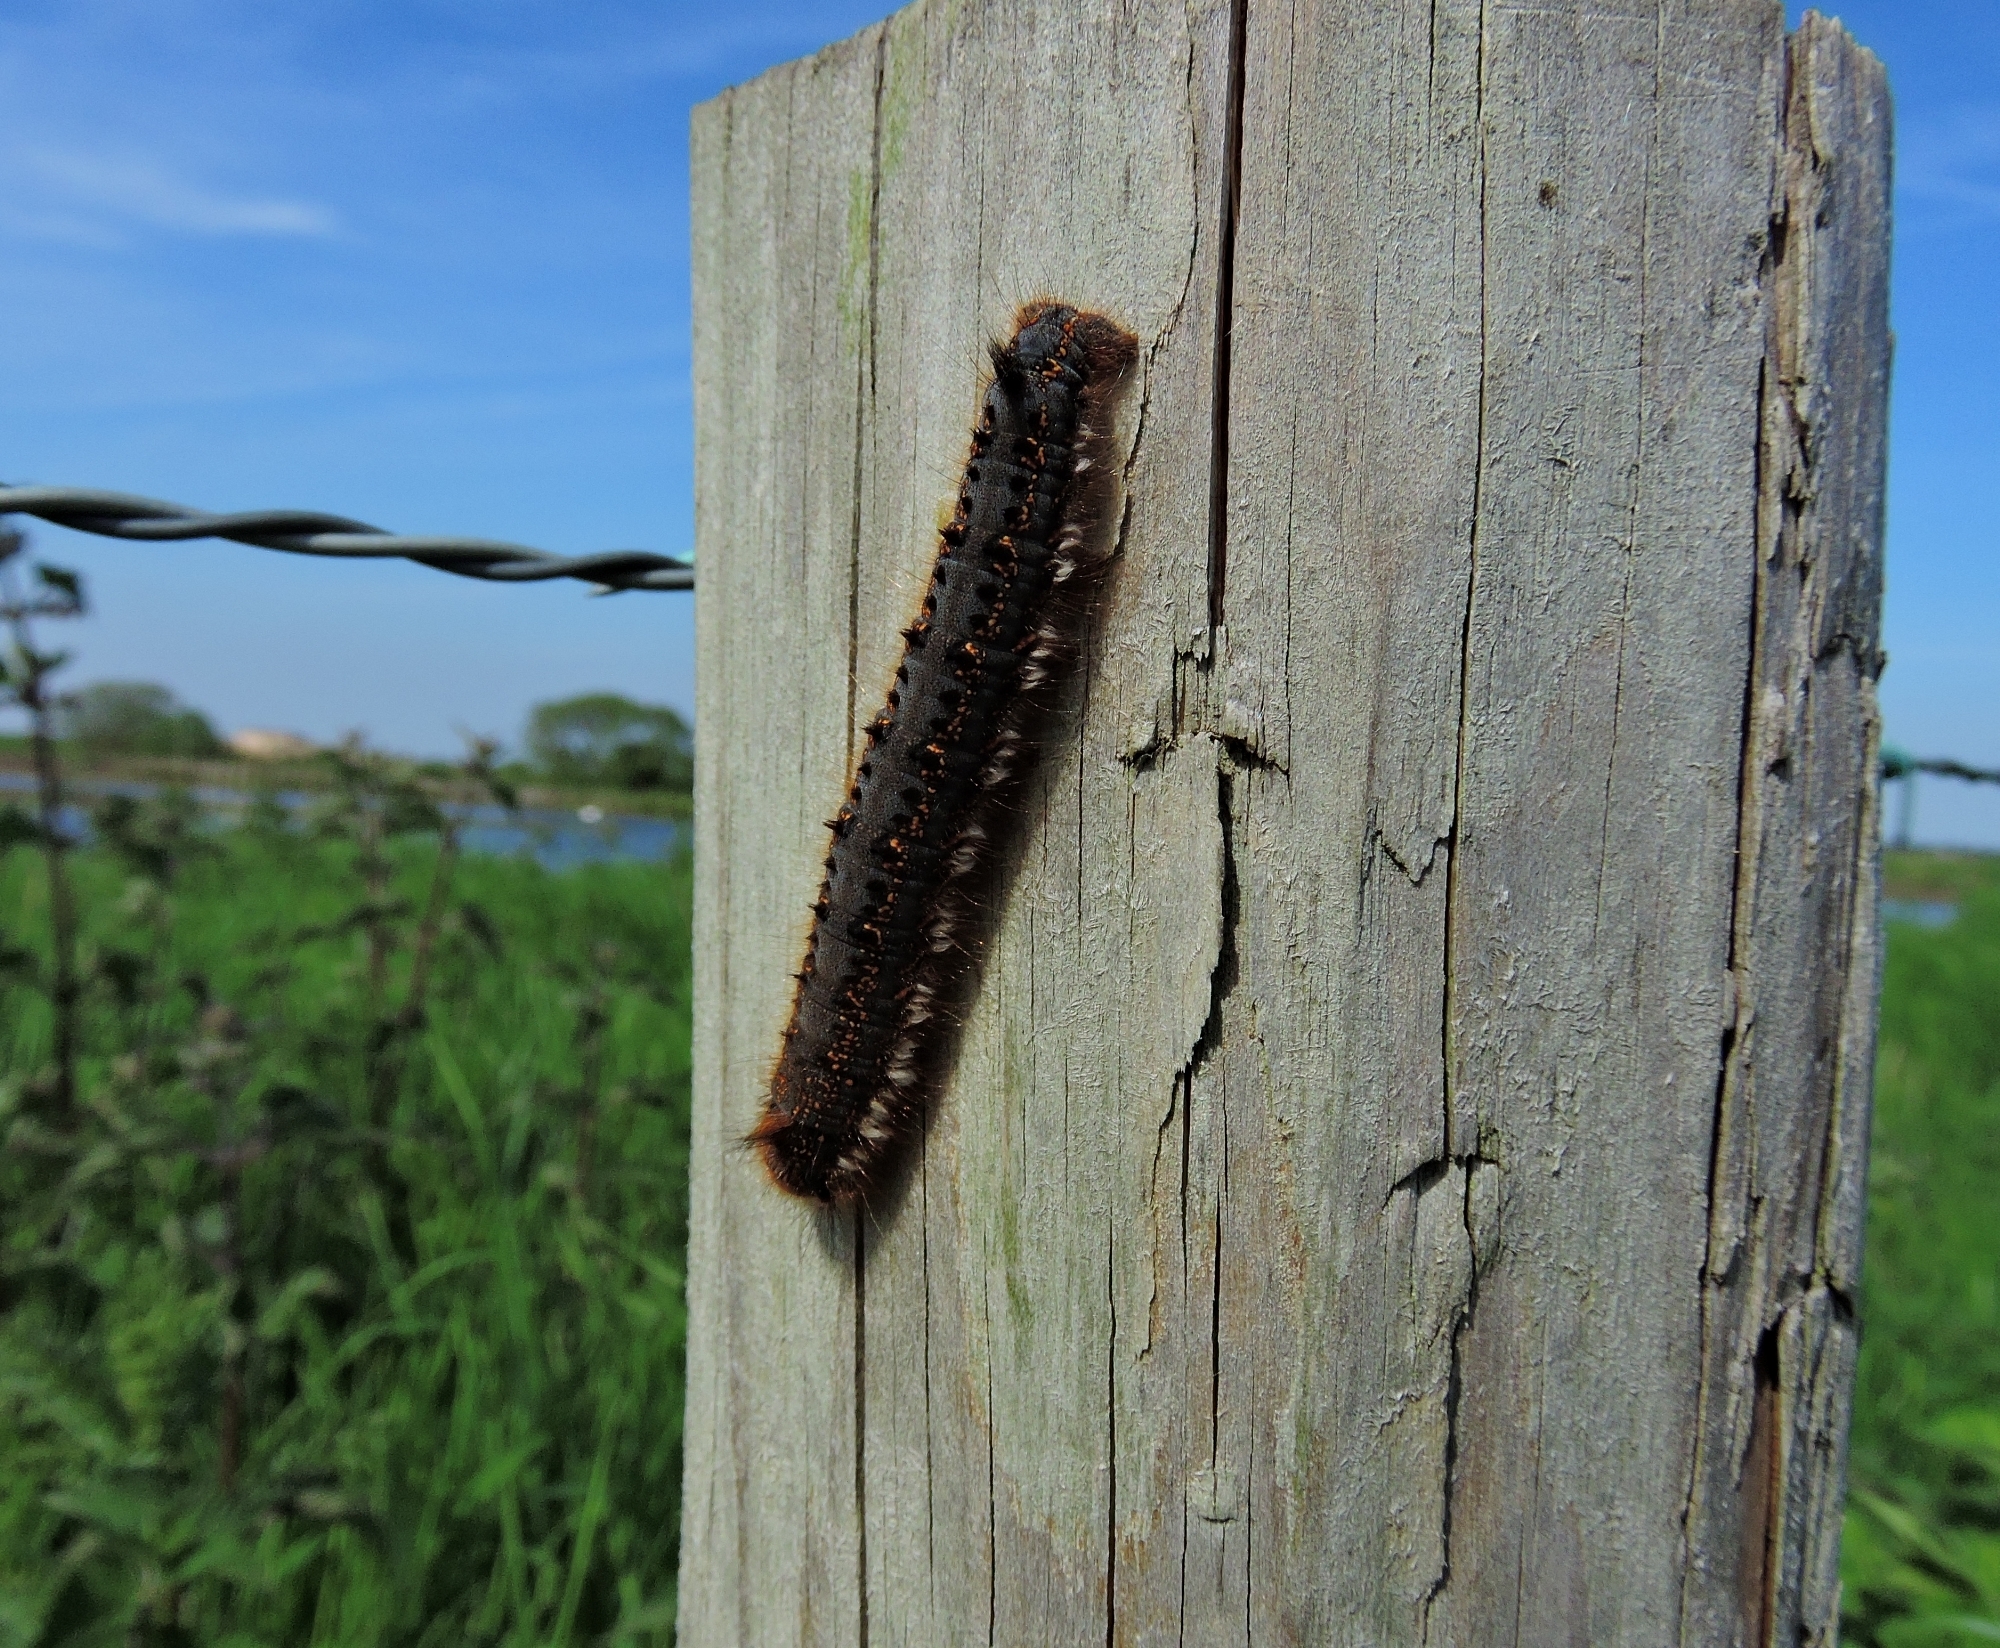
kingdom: Animalia
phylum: Arthropoda
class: Insecta
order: Lepidoptera
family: Lasiocampidae
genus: Euthrix
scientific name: Euthrix potatoria
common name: Drinker
